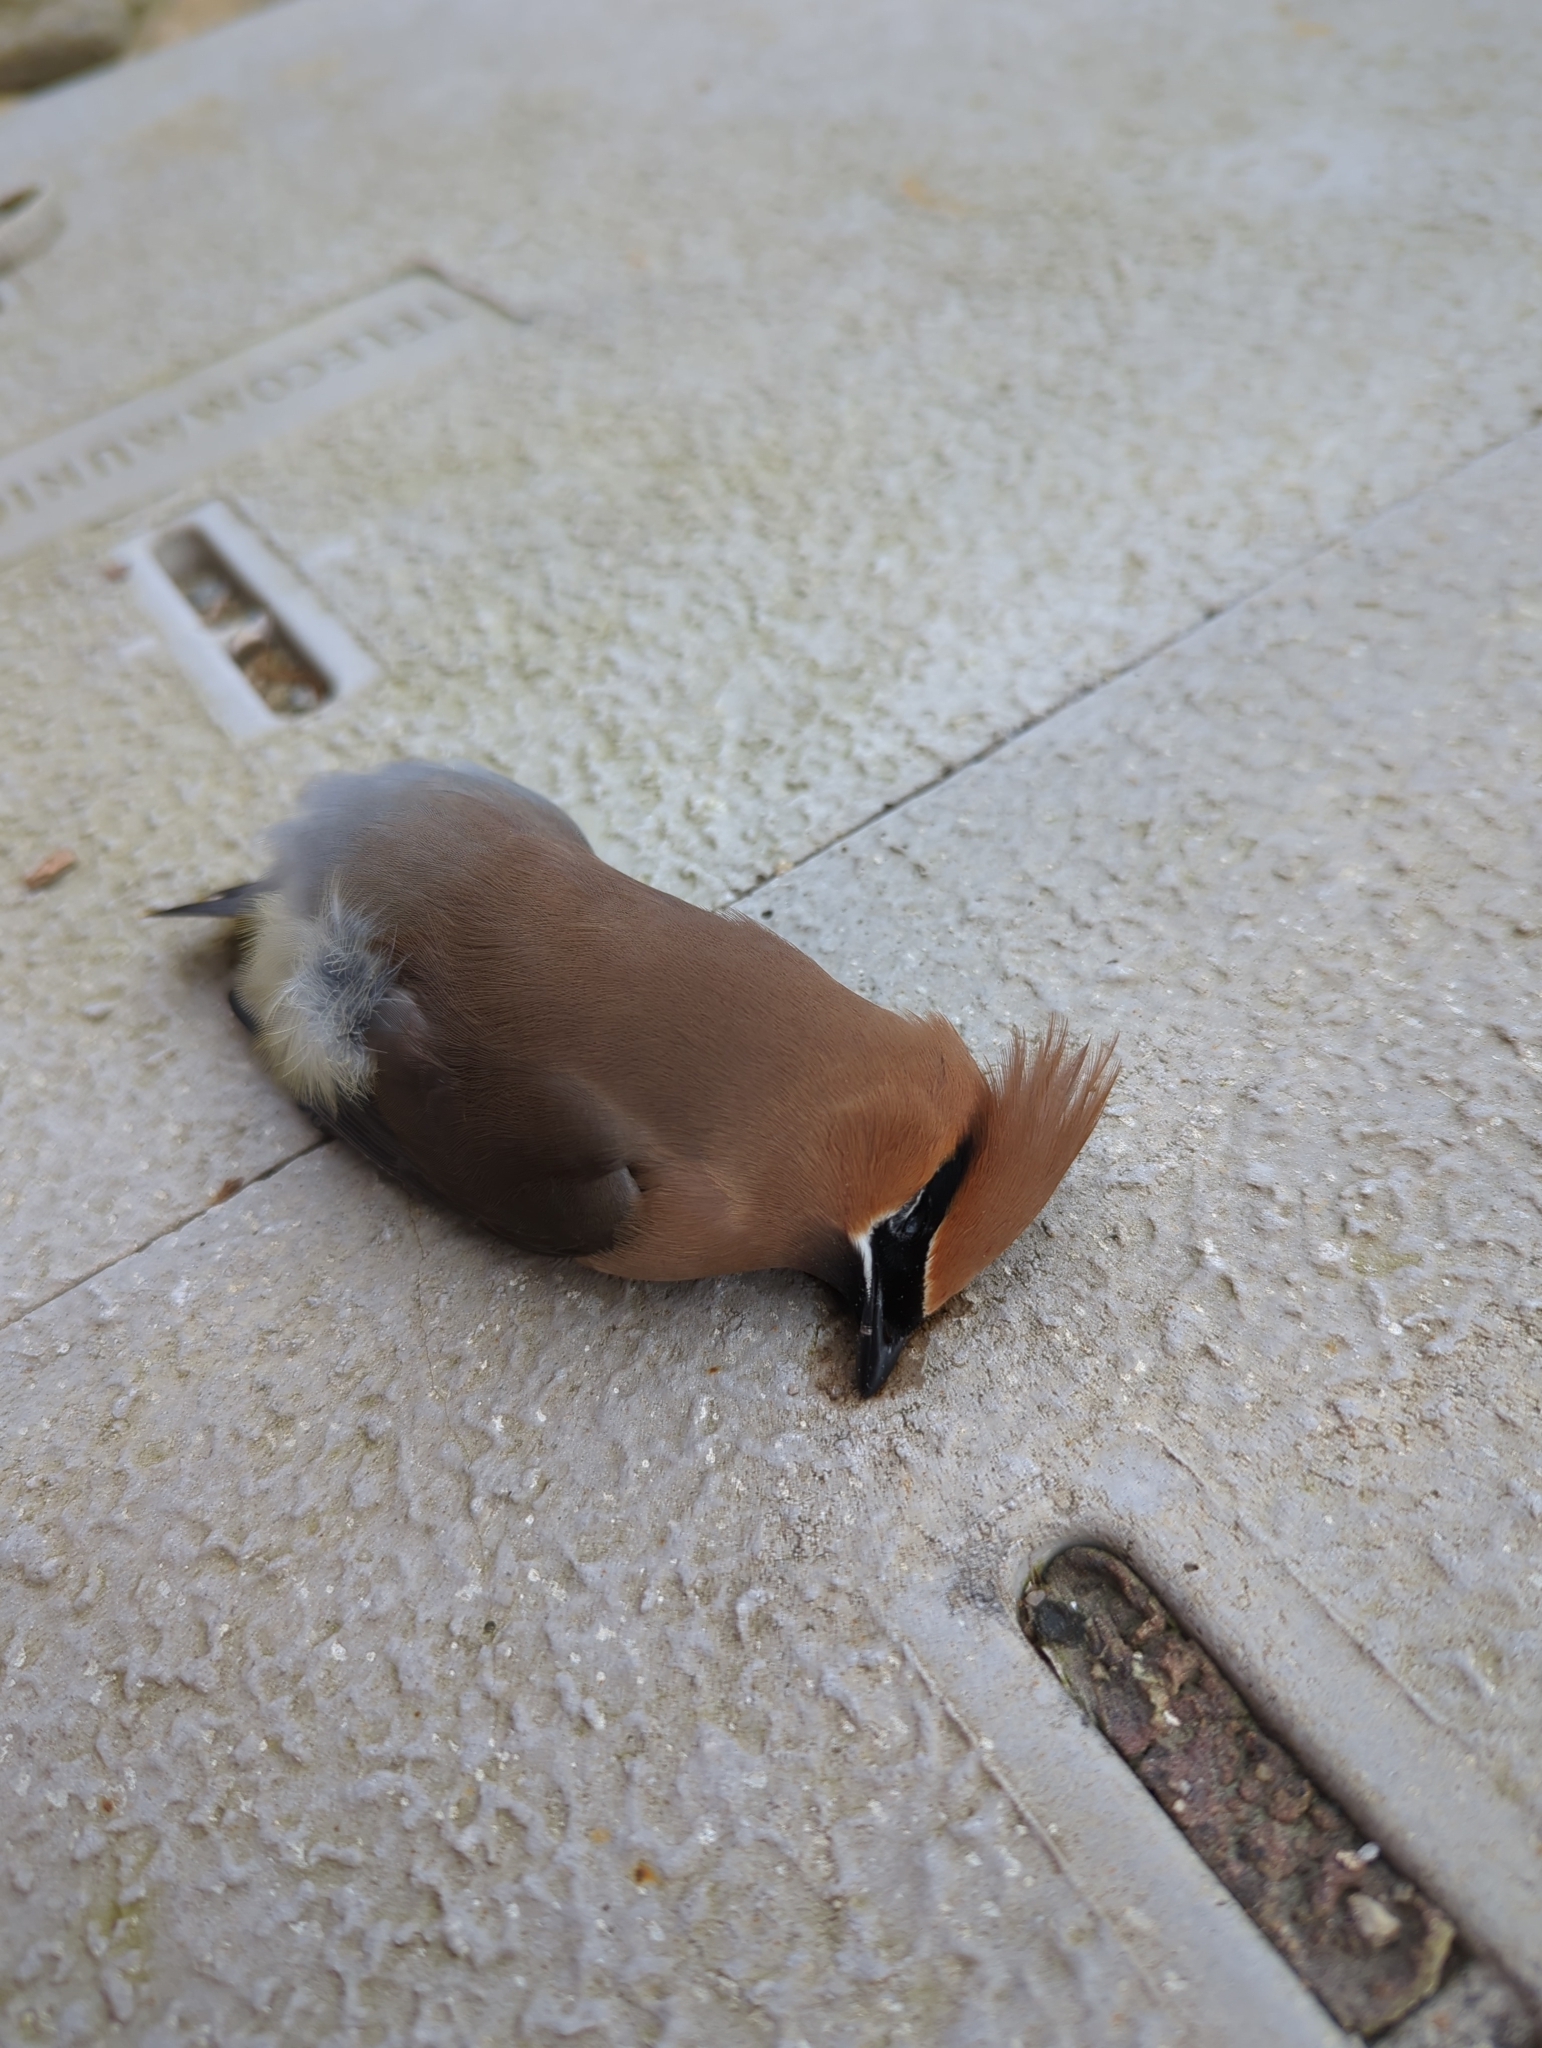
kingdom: Animalia
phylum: Chordata
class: Aves
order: Passeriformes
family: Bombycillidae
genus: Bombycilla
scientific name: Bombycilla cedrorum
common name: Cedar waxwing
